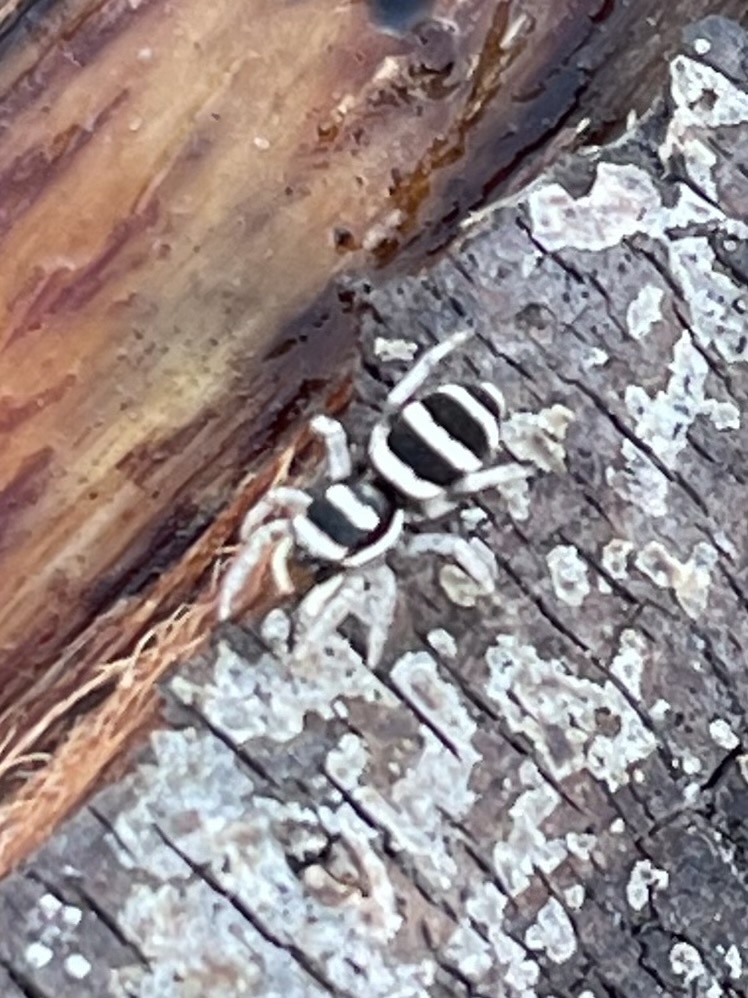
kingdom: Animalia
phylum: Arthropoda
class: Arachnida
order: Araneae
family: Salticidae
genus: Salticus
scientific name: Salticus austinensis
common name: Jumping spiders
